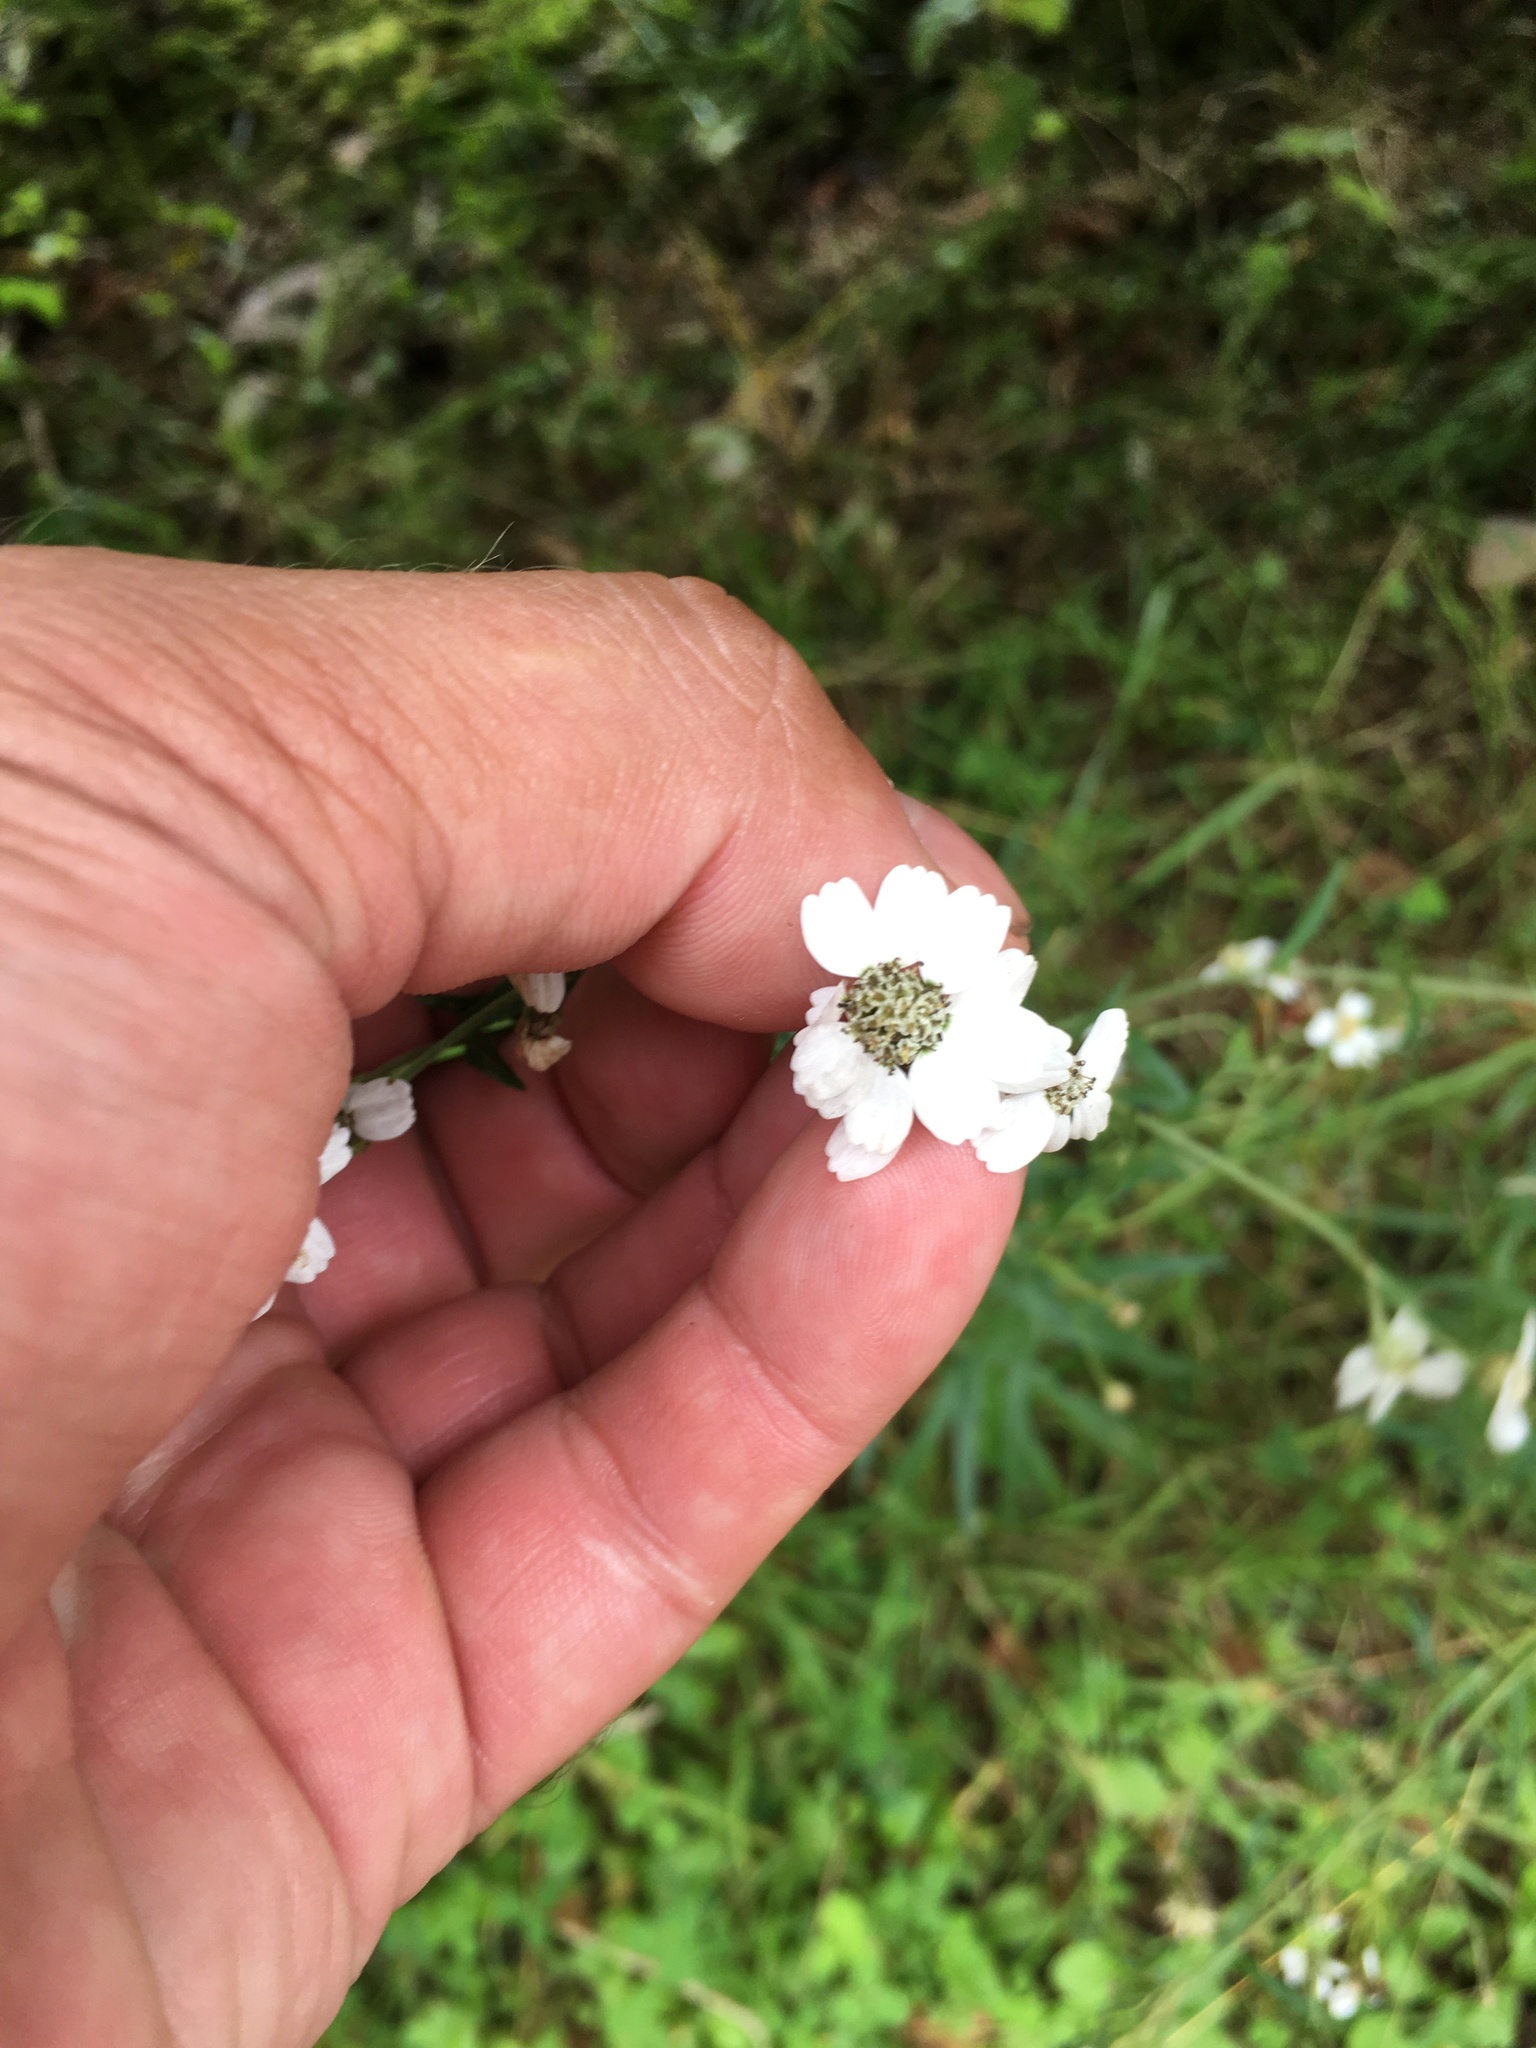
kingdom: Plantae
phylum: Tracheophyta
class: Magnoliopsida
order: Asterales
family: Asteraceae
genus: Achillea
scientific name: Achillea ptarmica
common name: Sneezeweed
